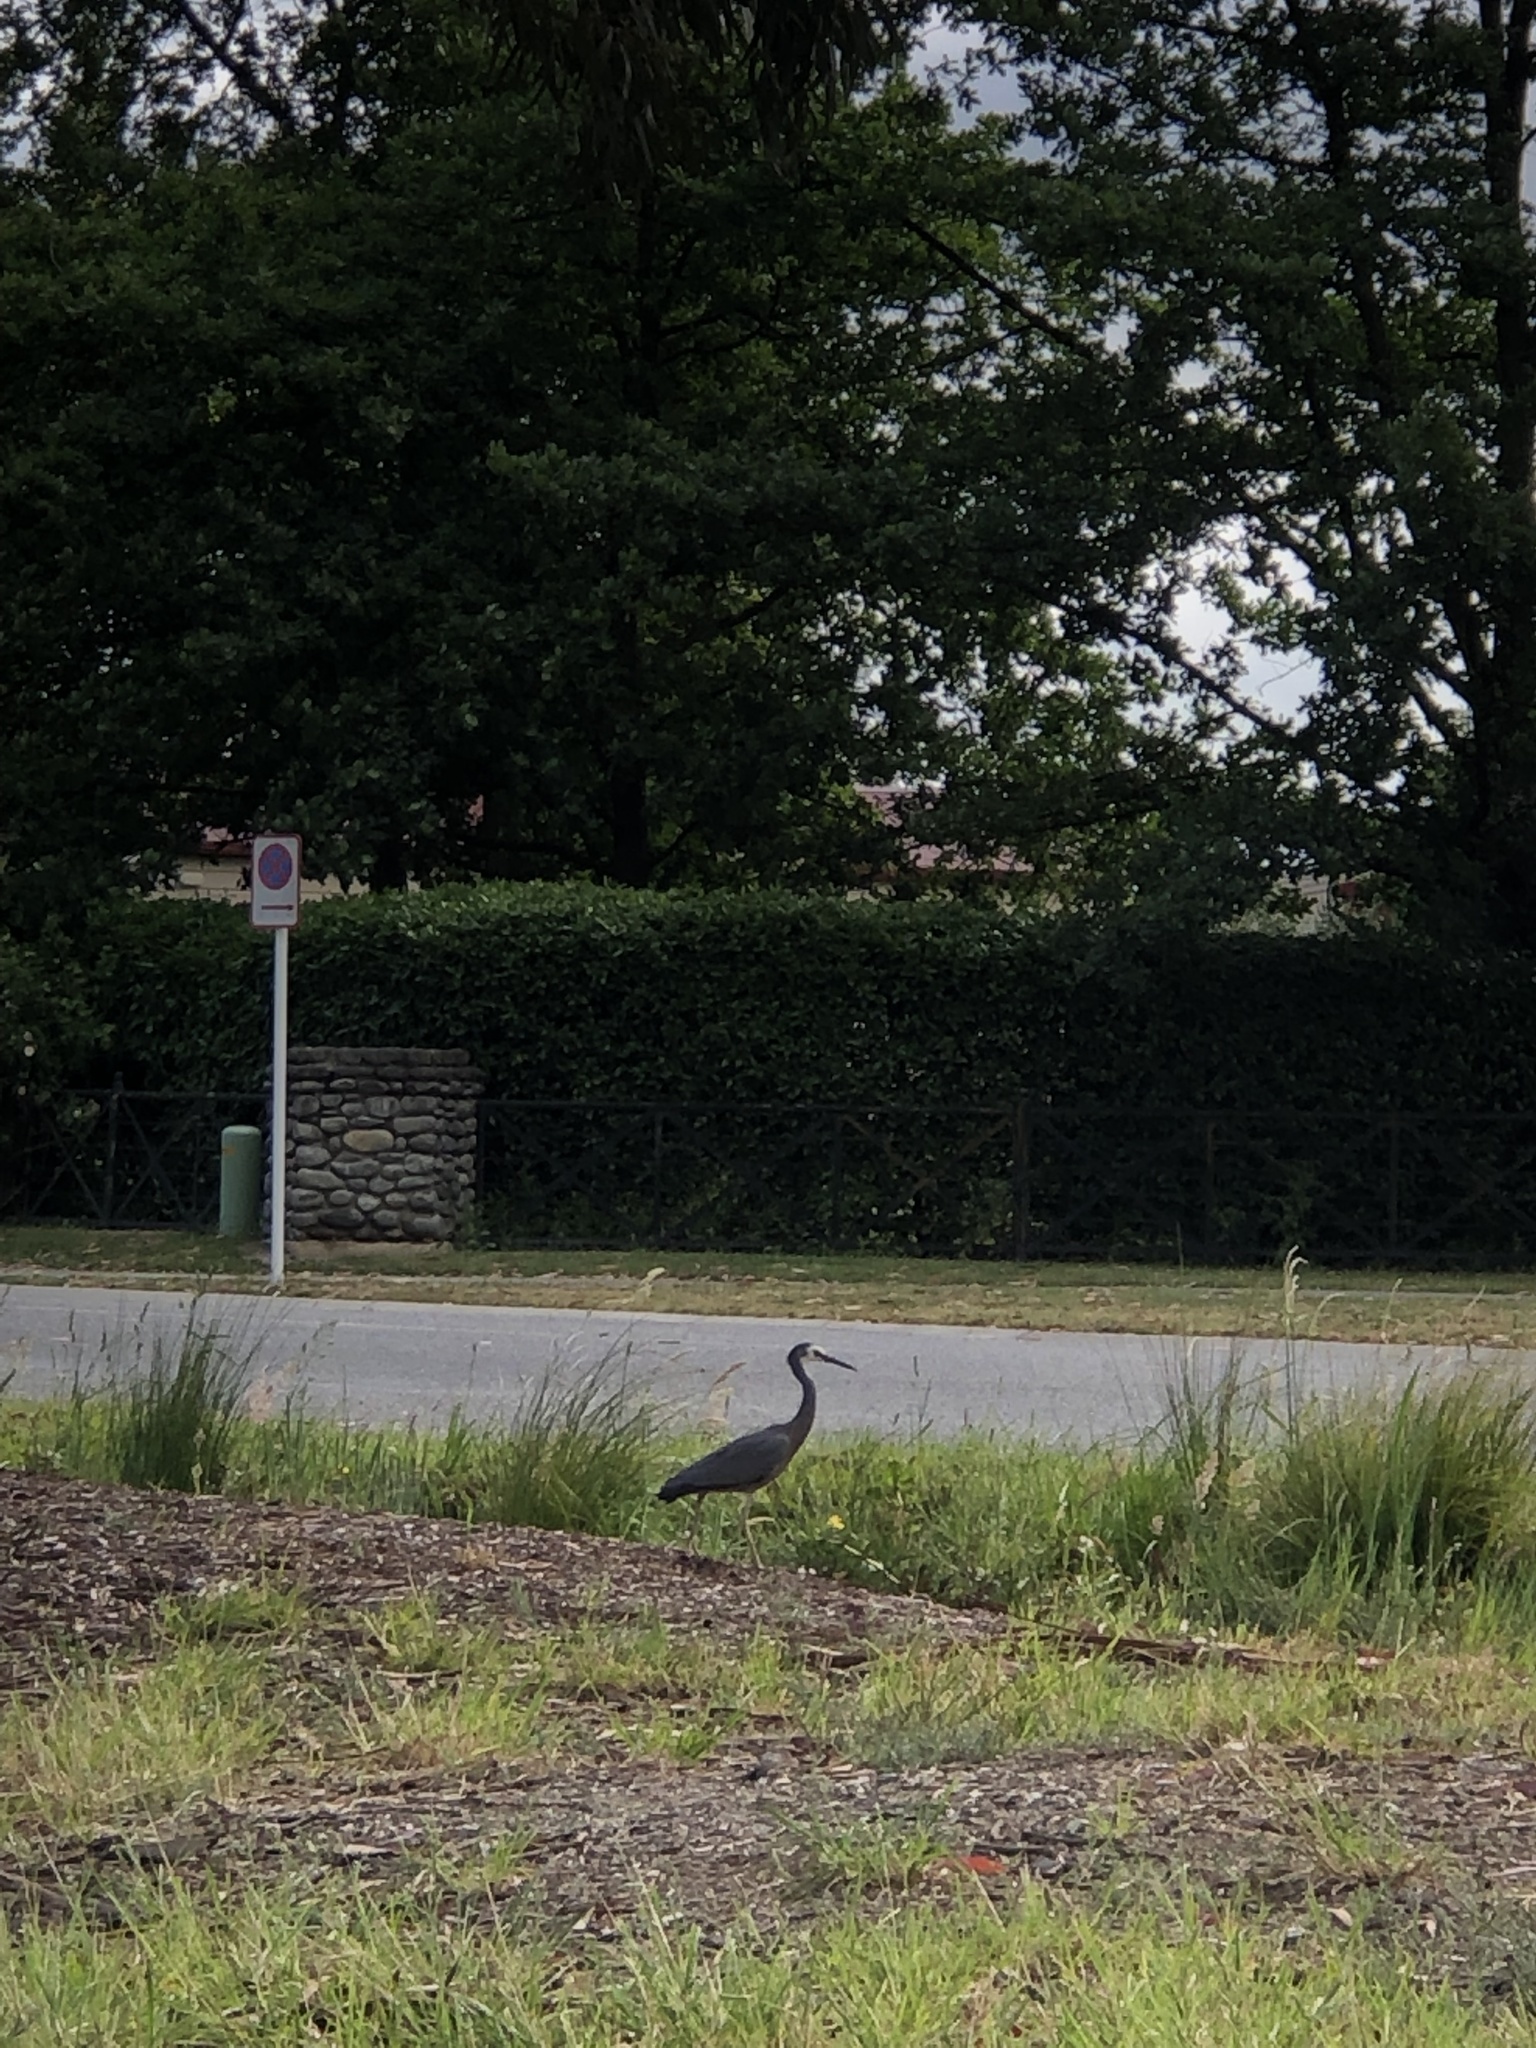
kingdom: Animalia
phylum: Chordata
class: Aves
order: Pelecaniformes
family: Ardeidae
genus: Egretta
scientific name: Egretta novaehollandiae
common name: White-faced heron
